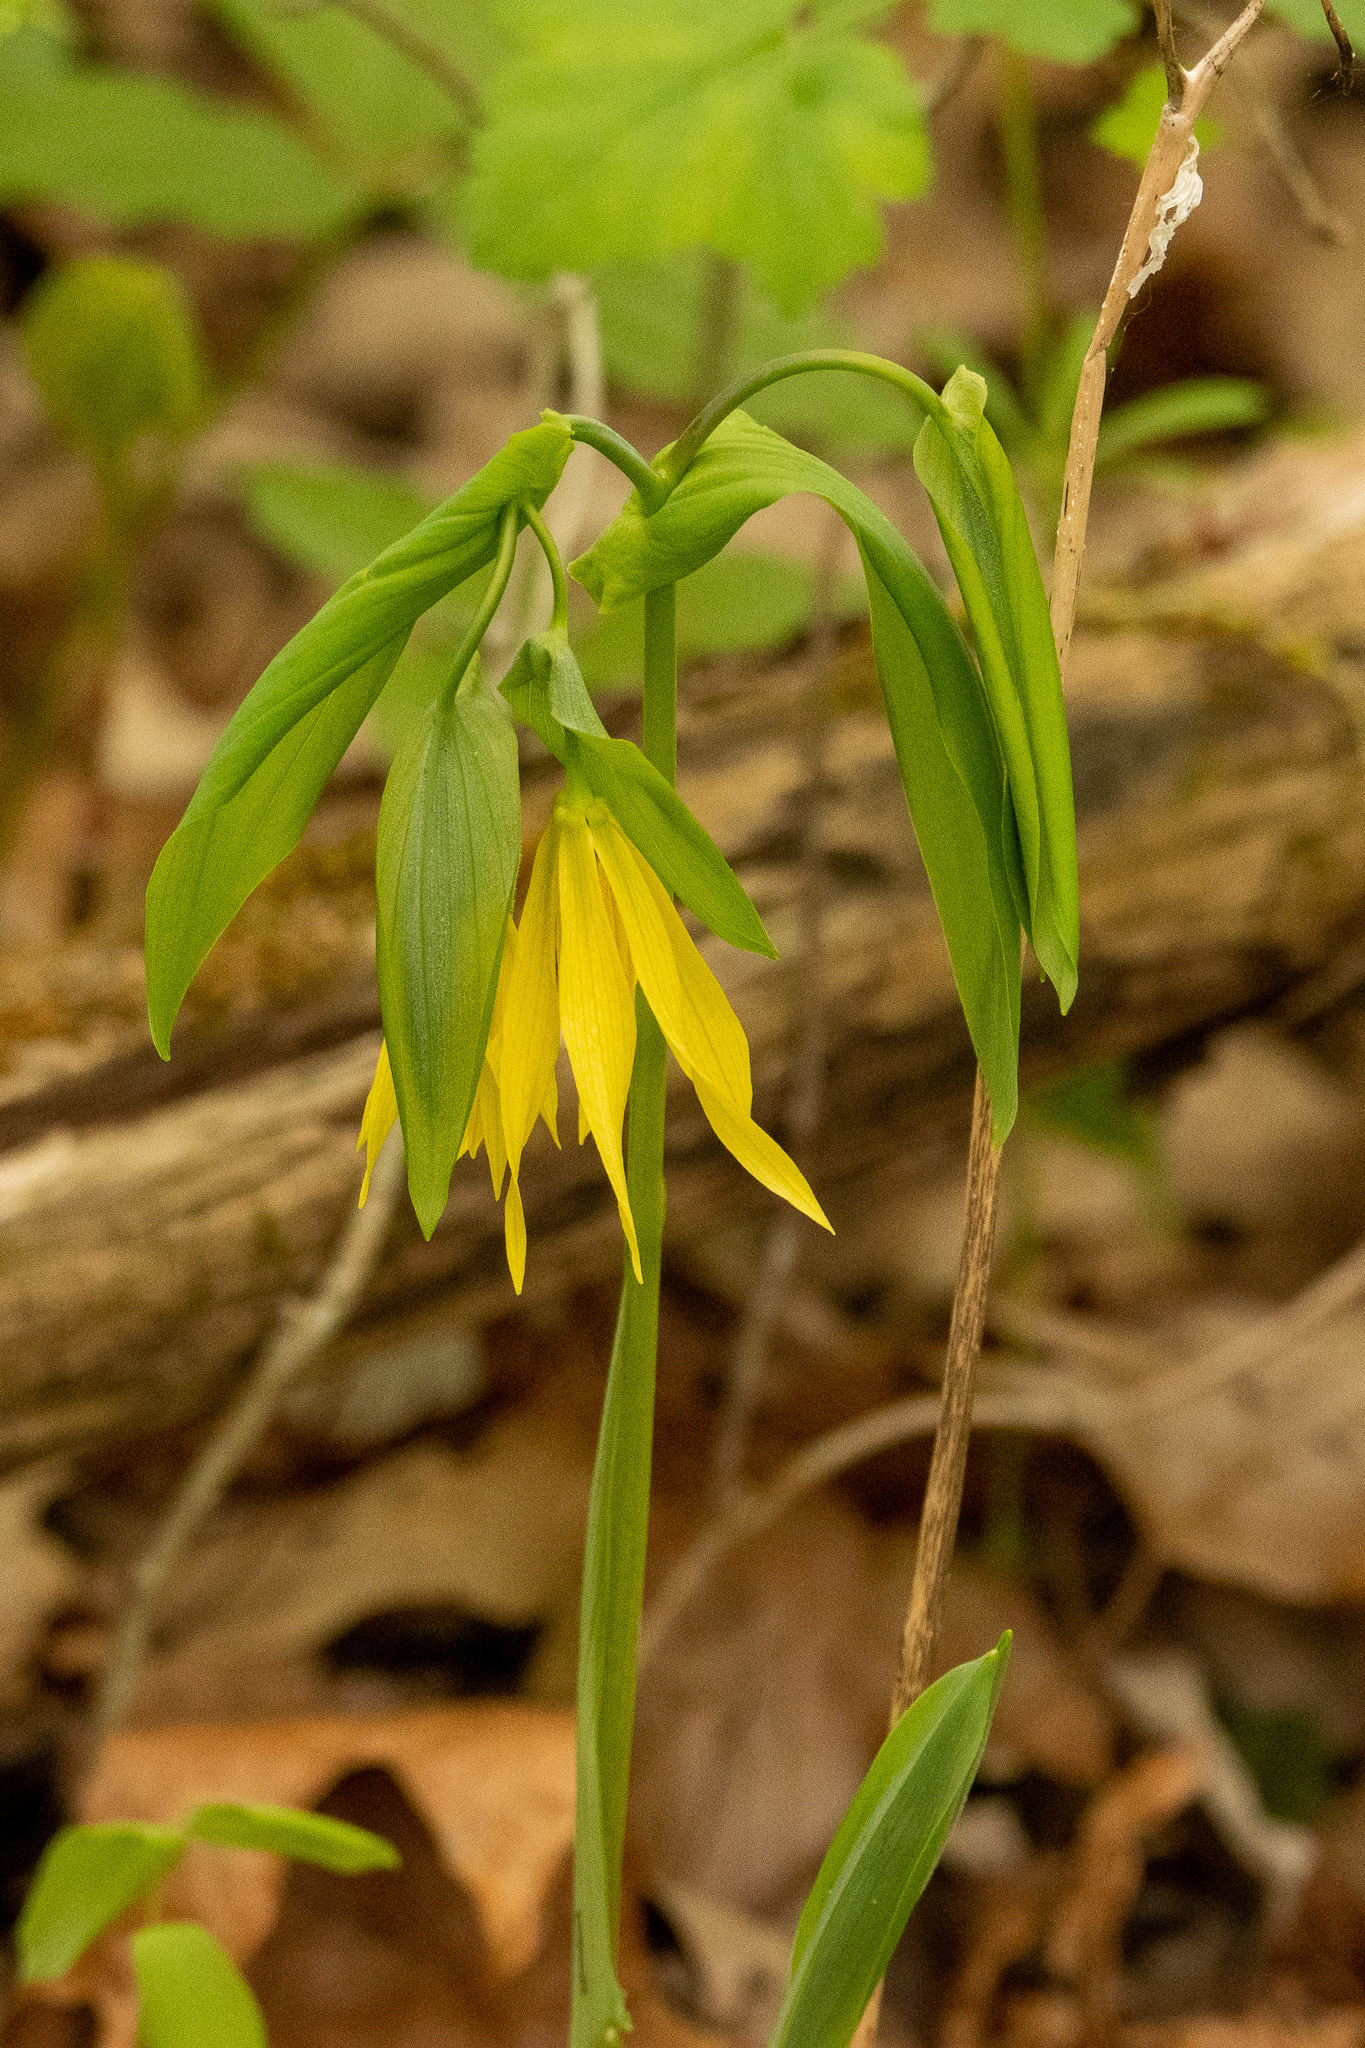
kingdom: Plantae
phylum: Tracheophyta
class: Liliopsida
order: Liliales
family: Colchicaceae
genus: Uvularia
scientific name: Uvularia grandiflora
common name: Bellwort
